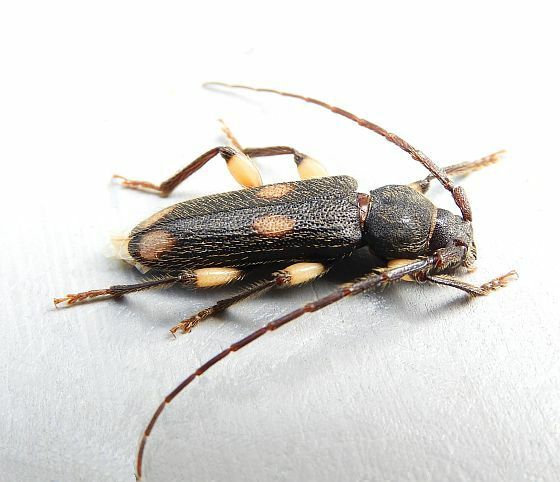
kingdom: Animalia
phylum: Arthropoda
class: Insecta
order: Coleoptera
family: Cerambycidae
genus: Tylonotus
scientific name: Tylonotus bimaculatus
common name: Ash and privet borer
